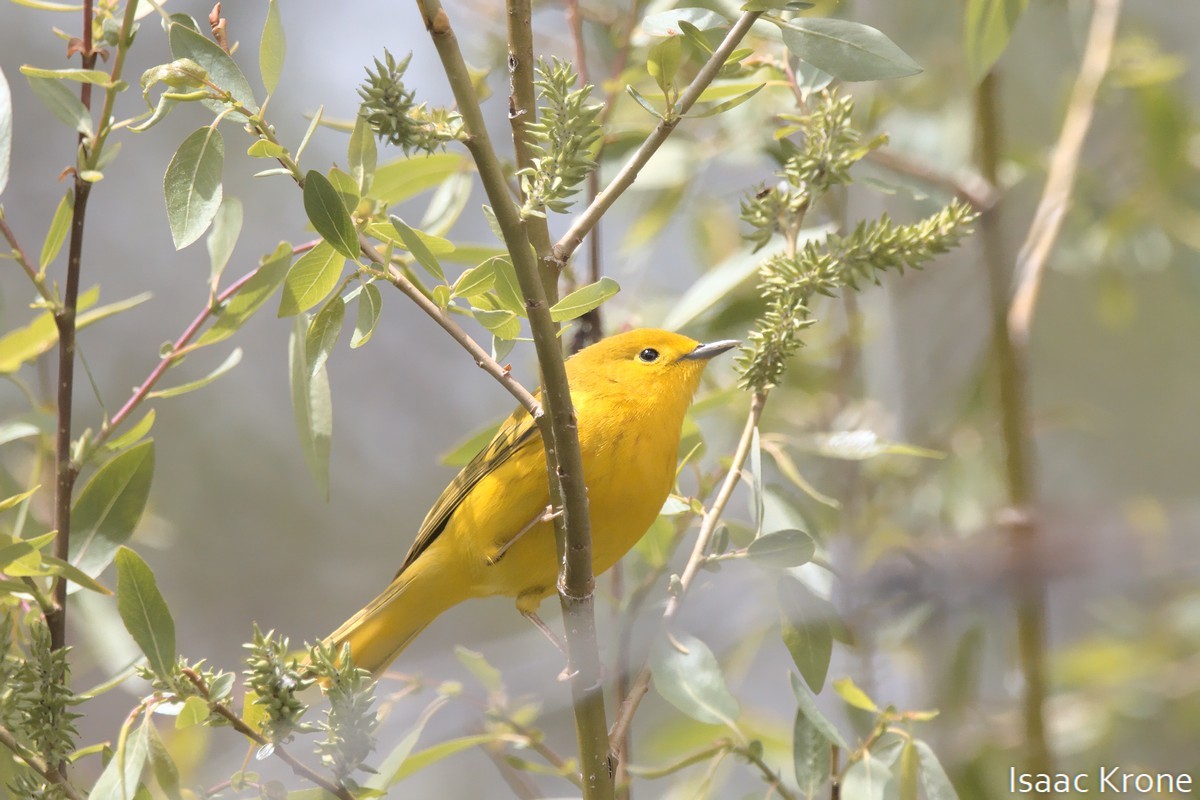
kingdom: Animalia
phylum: Chordata
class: Aves
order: Passeriformes
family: Parulidae
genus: Setophaga
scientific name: Setophaga petechia
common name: Yellow warbler
